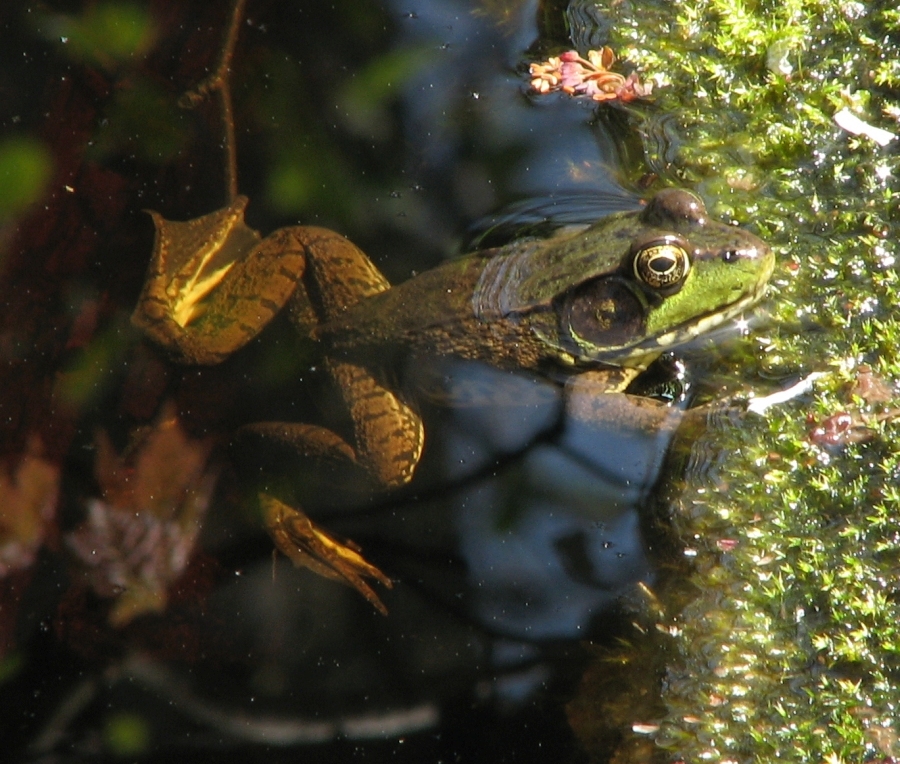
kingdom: Animalia
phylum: Chordata
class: Amphibia
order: Anura
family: Ranidae
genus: Lithobates
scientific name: Lithobates clamitans
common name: Green frog
